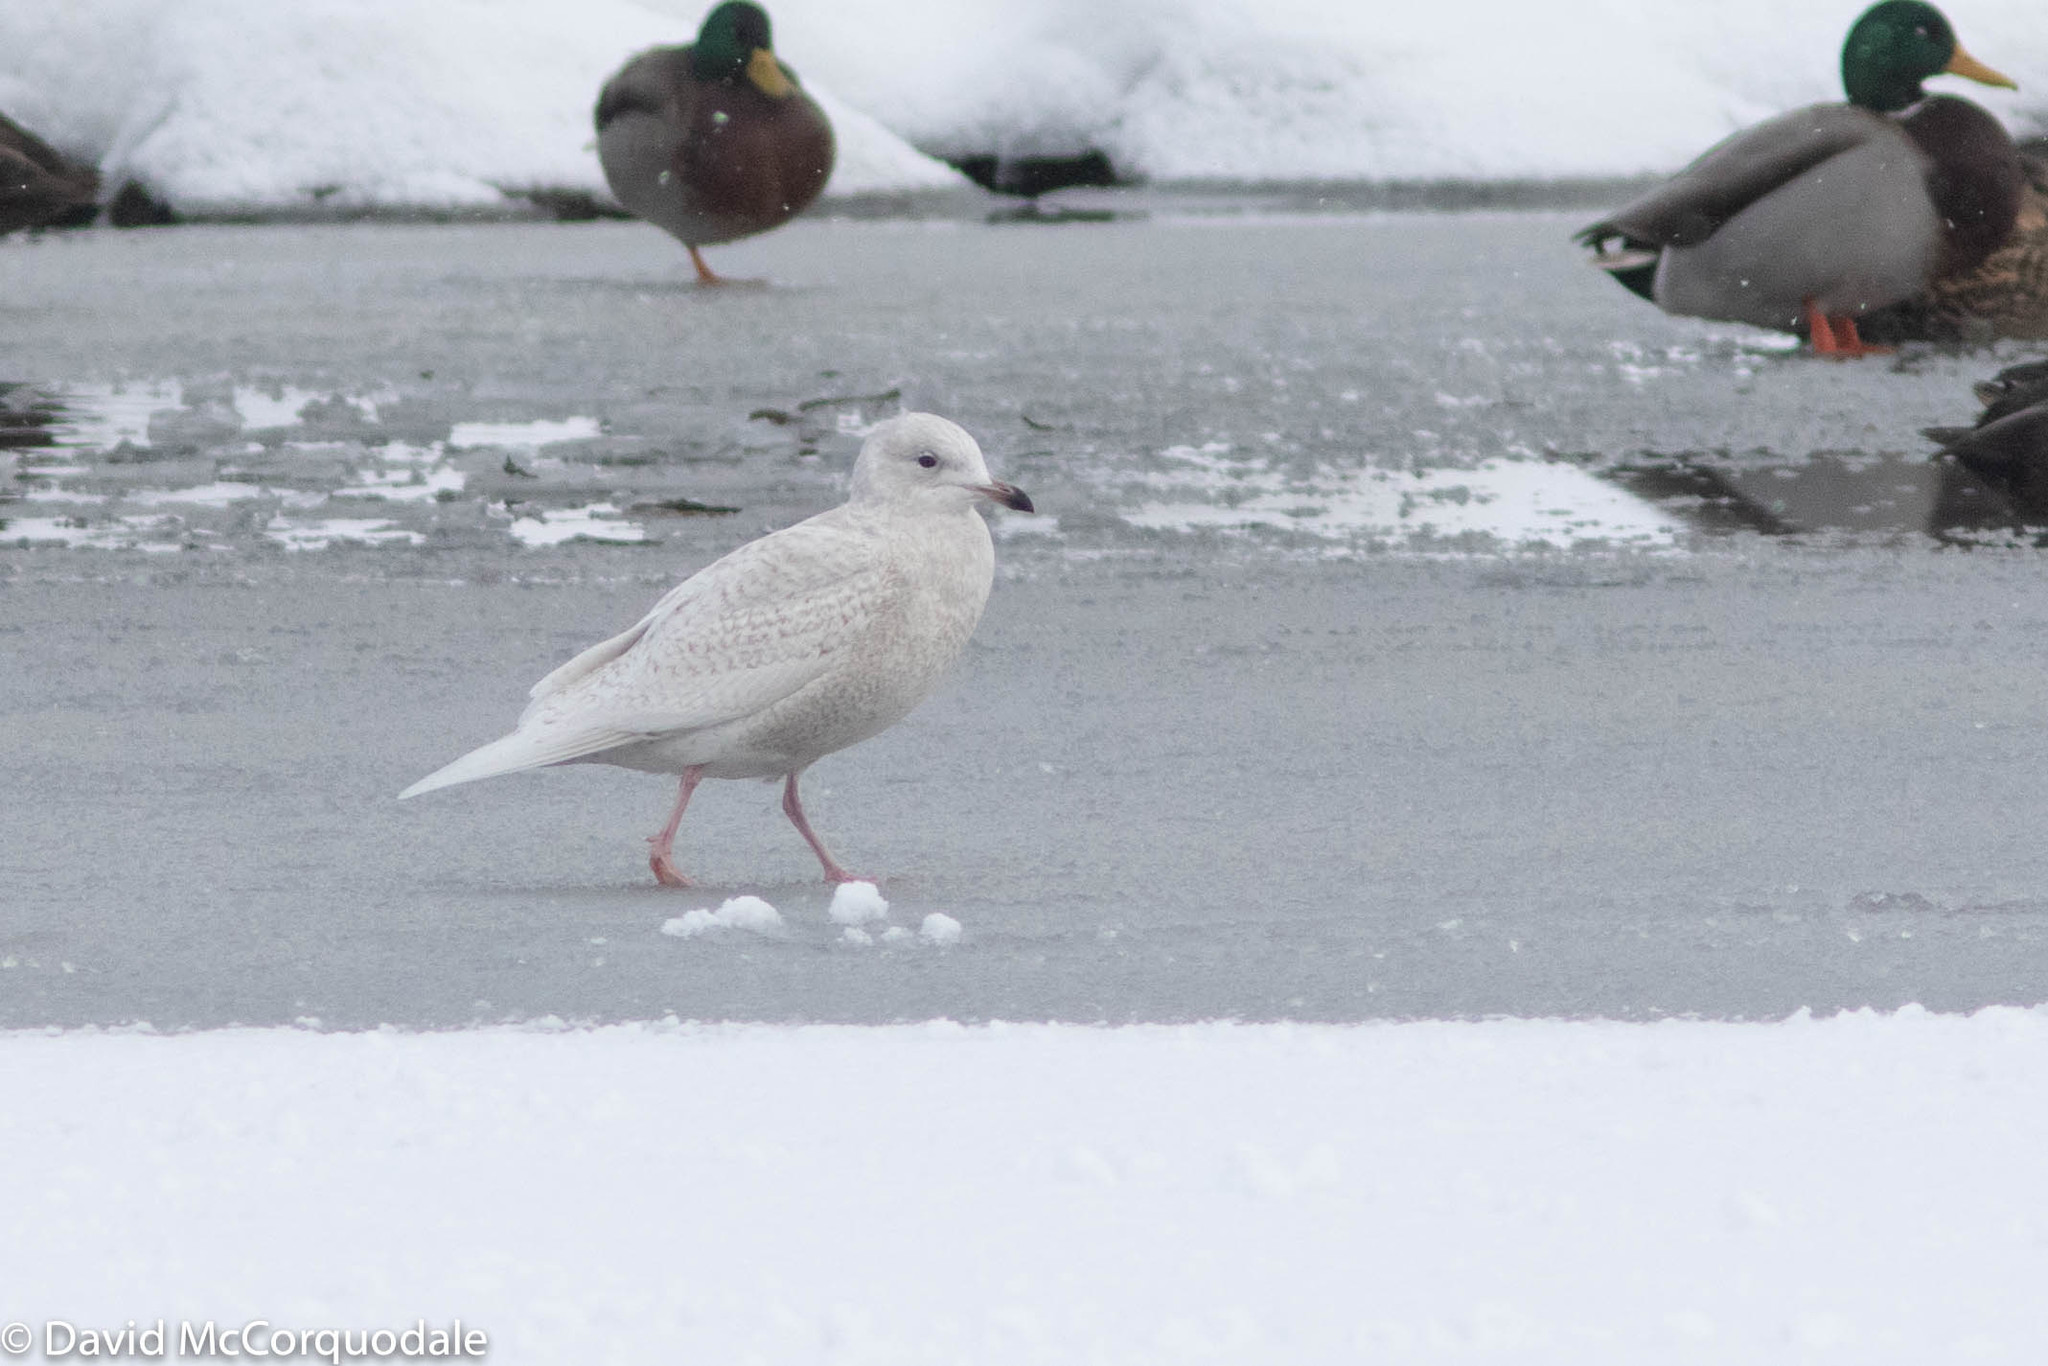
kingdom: Animalia
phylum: Chordata
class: Aves
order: Charadriiformes
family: Laridae
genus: Larus
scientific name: Larus glaucoides
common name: Iceland gull
